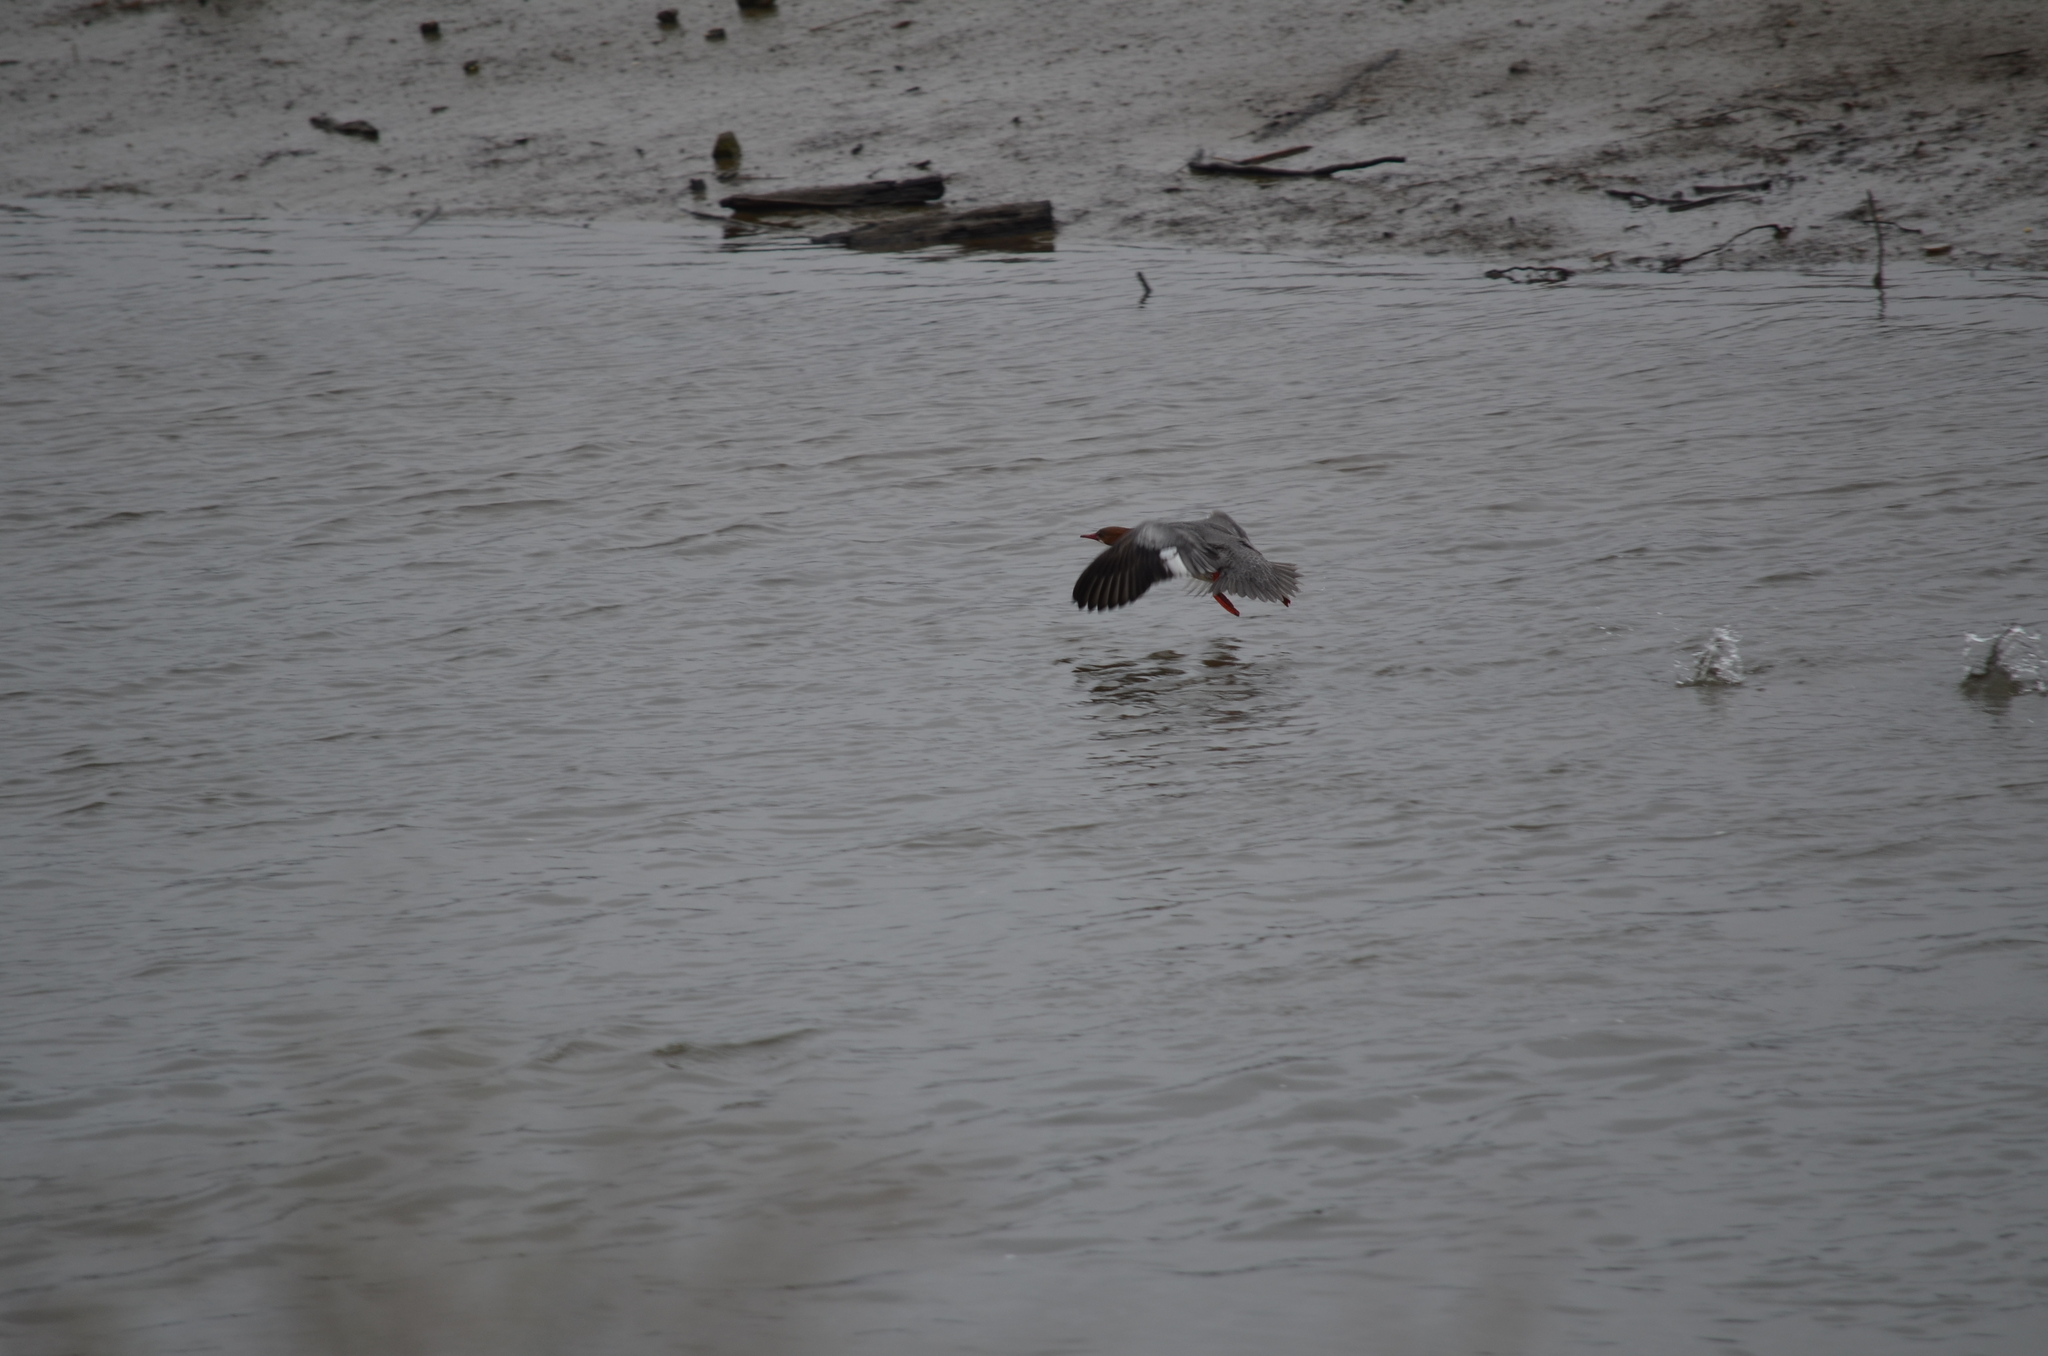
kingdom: Animalia
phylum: Chordata
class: Aves
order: Anseriformes
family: Anatidae
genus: Mergus
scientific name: Mergus merganser
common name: Common merganser
